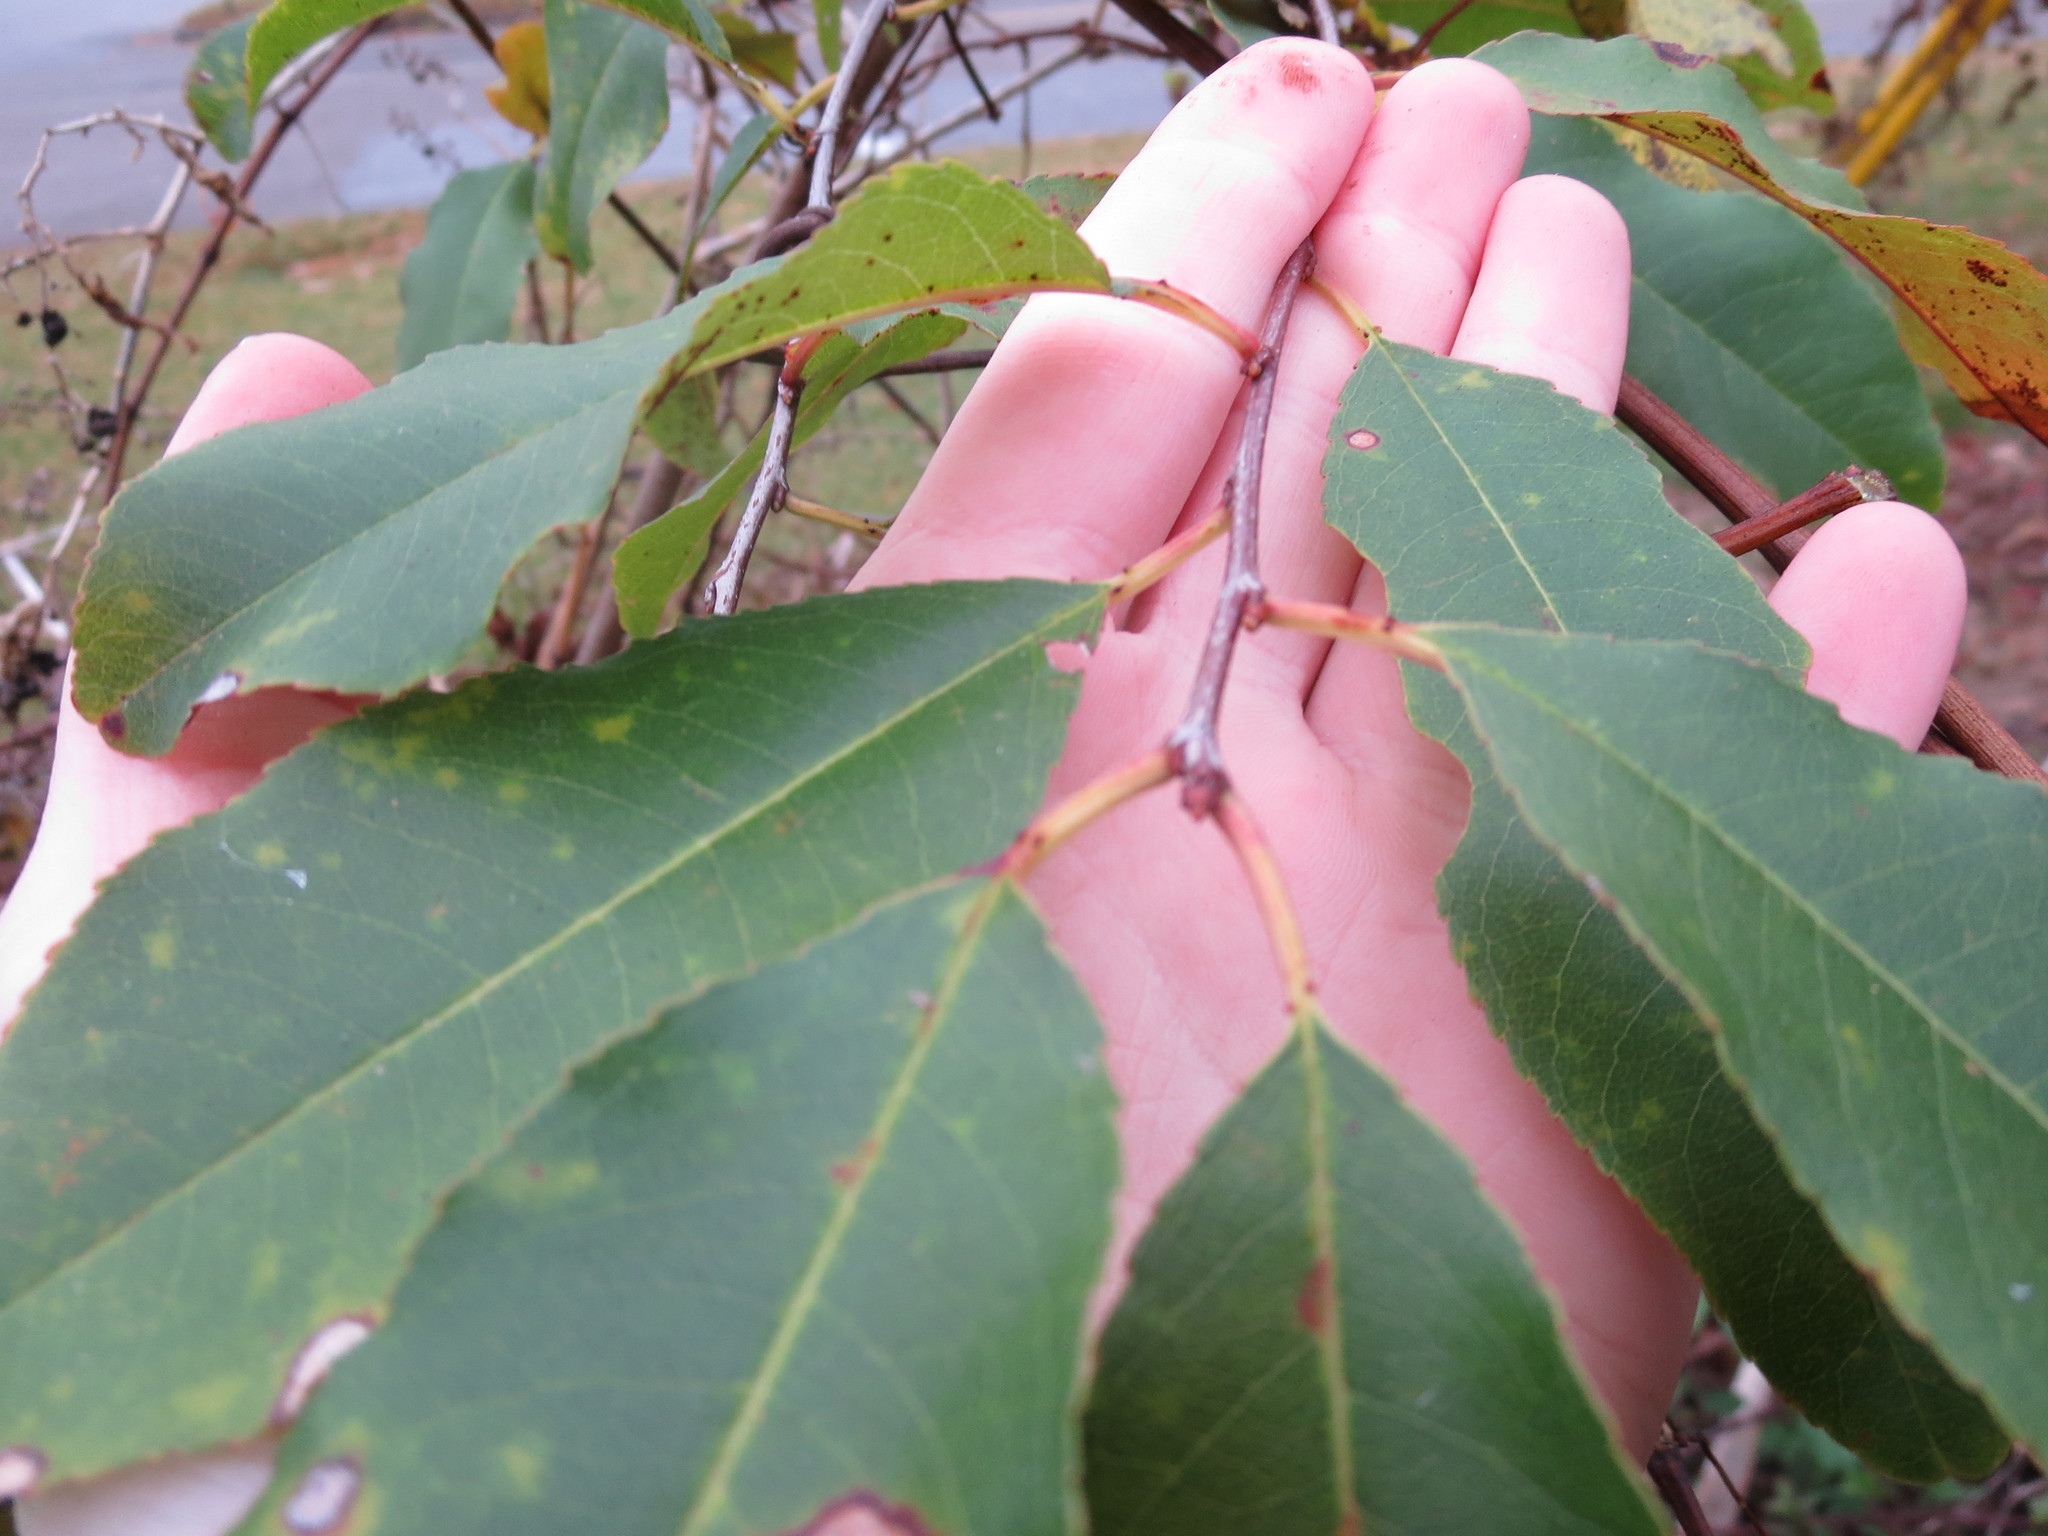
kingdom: Plantae
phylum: Tracheophyta
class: Magnoliopsida
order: Rosales
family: Rosaceae
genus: Prunus
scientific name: Prunus serotina
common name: Black cherry
